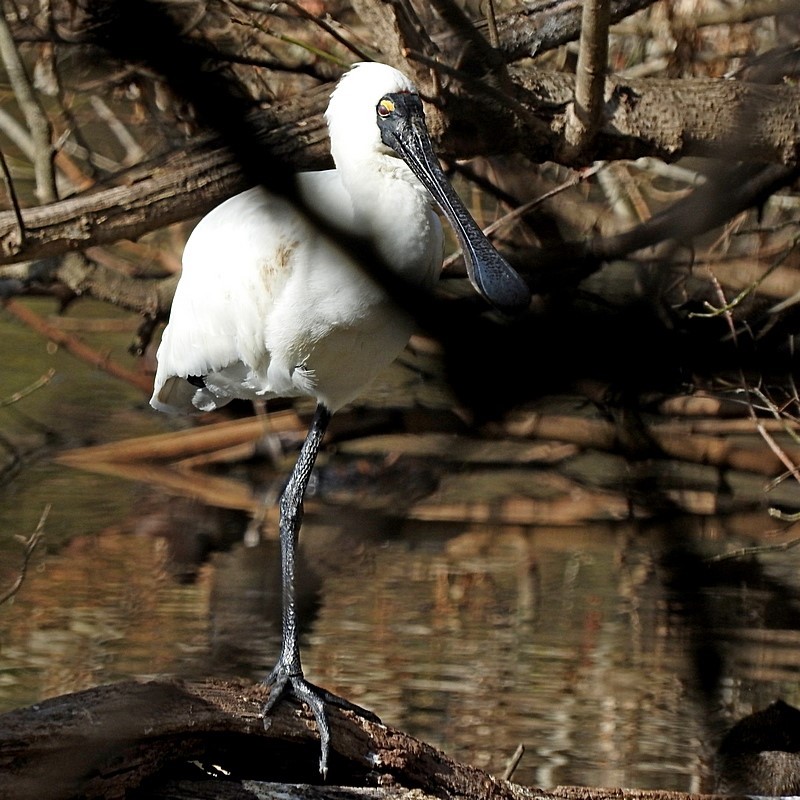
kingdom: Animalia
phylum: Chordata
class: Aves
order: Pelecaniformes
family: Threskiornithidae
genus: Platalea
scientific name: Platalea regia
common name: Royal spoonbill
